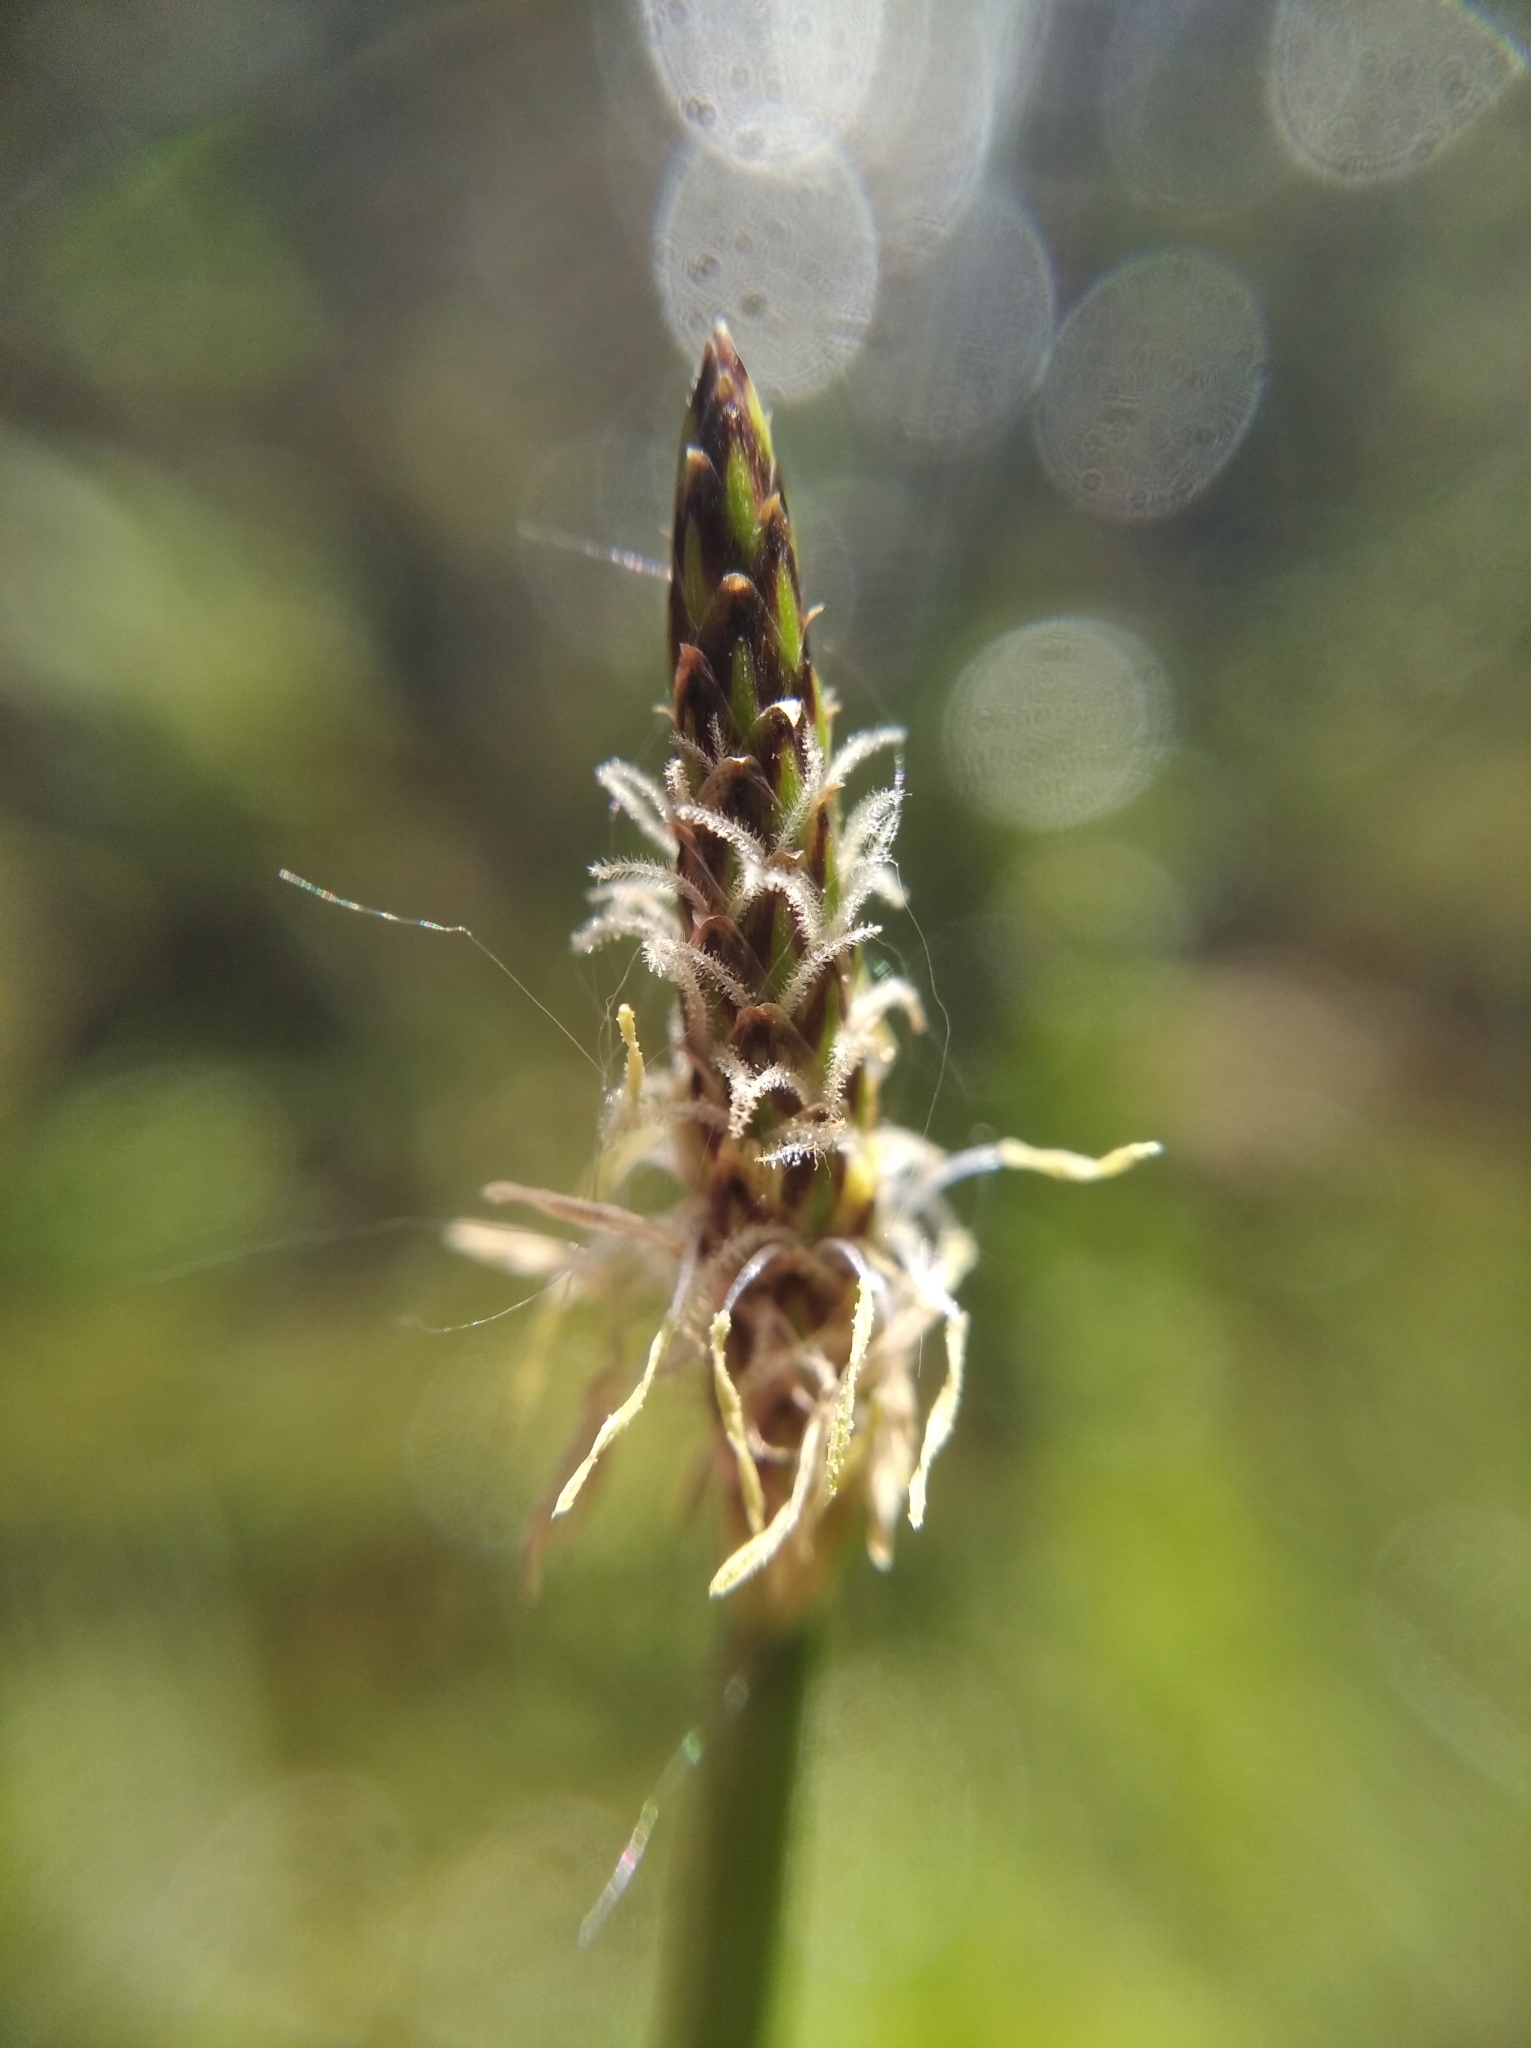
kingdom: Plantae
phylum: Tracheophyta
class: Liliopsida
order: Poales
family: Cyperaceae
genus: Eleocharis
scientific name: Eleocharis palustris
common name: Common spike-rush
